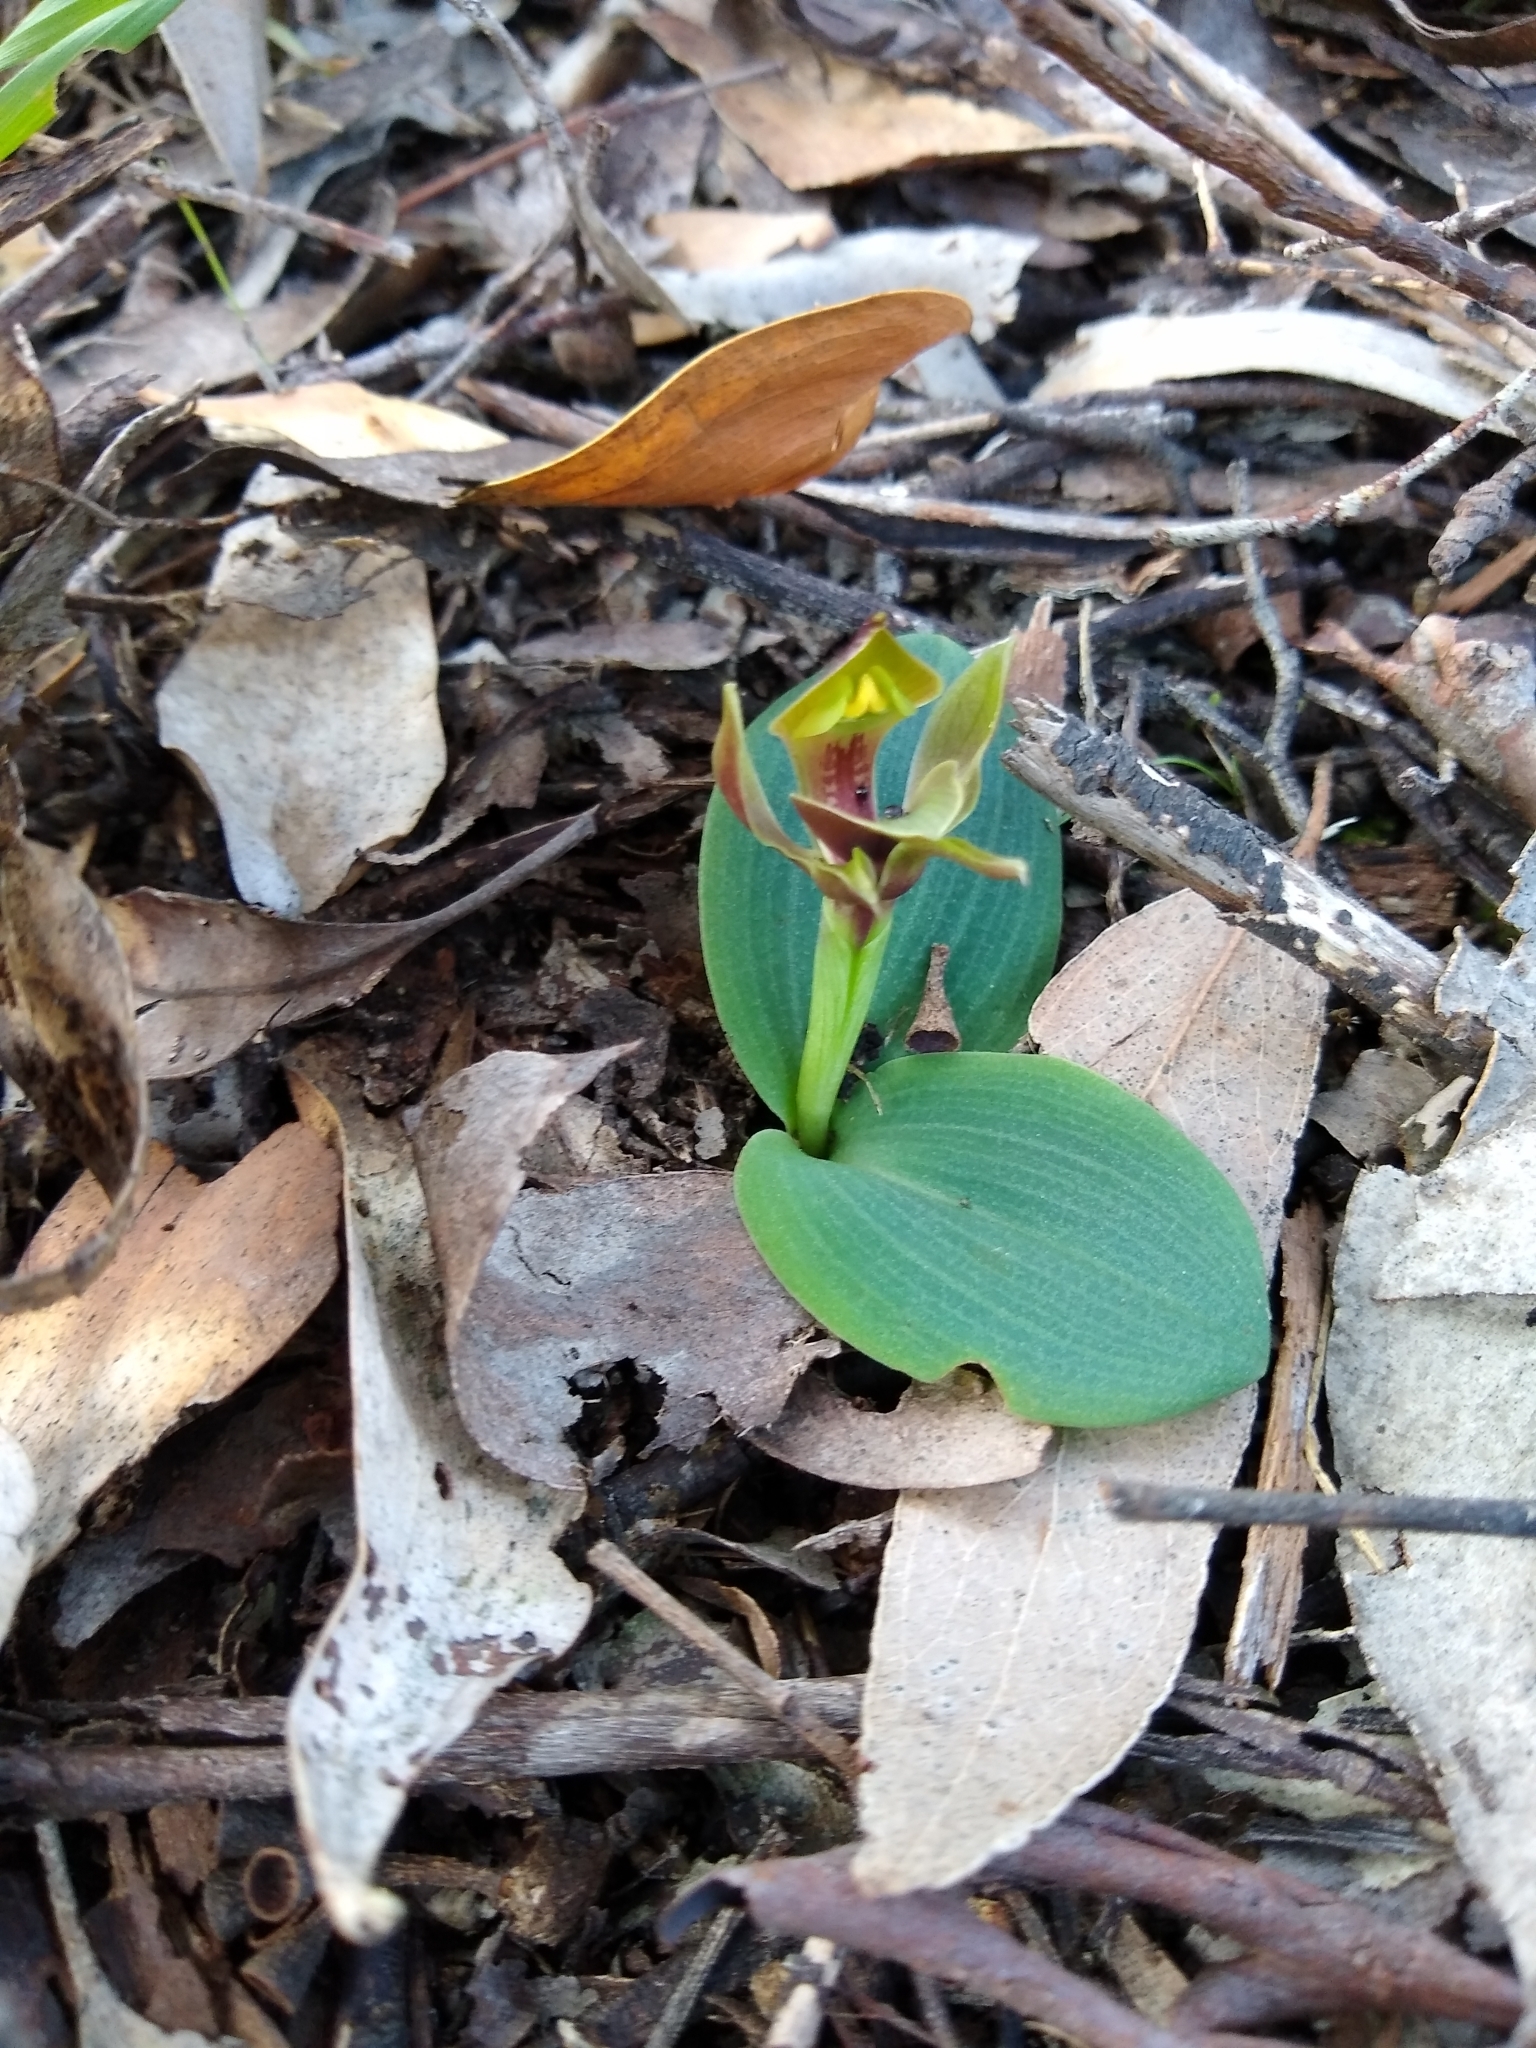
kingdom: Plantae
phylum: Tracheophyta
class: Liliopsida
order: Asparagales
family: Orchidaceae
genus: Chiloglottis
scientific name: Chiloglottis valida
